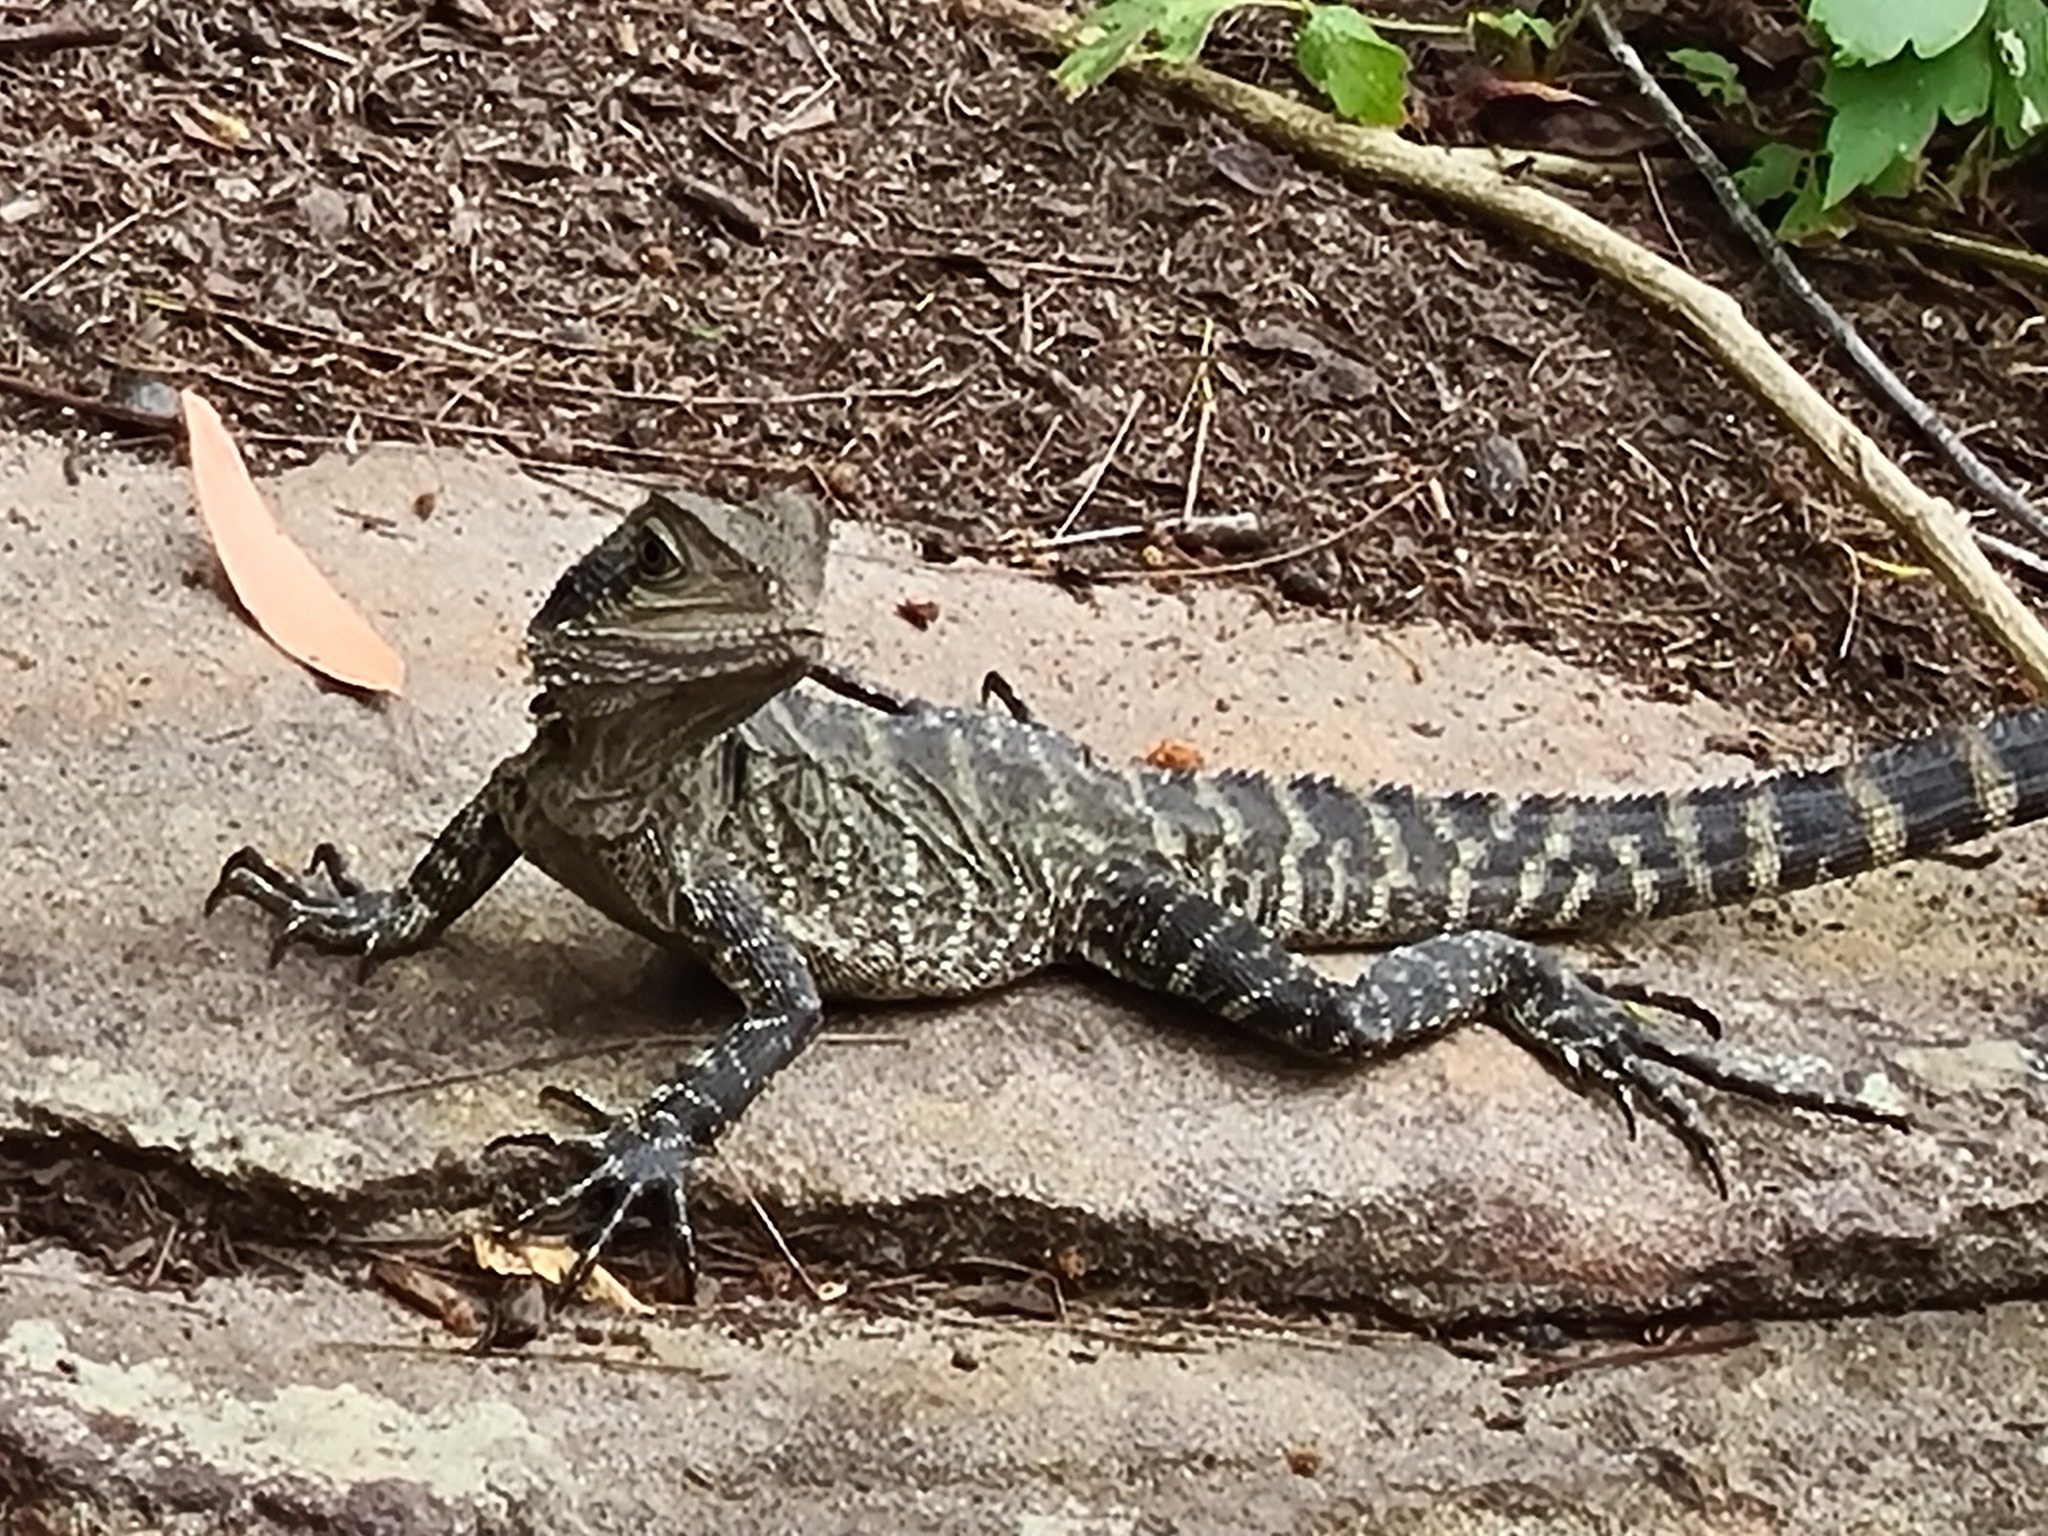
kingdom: Animalia
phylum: Chordata
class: Squamata
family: Agamidae
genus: Intellagama
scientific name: Intellagama lesueurii
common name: Eastern water dragon
